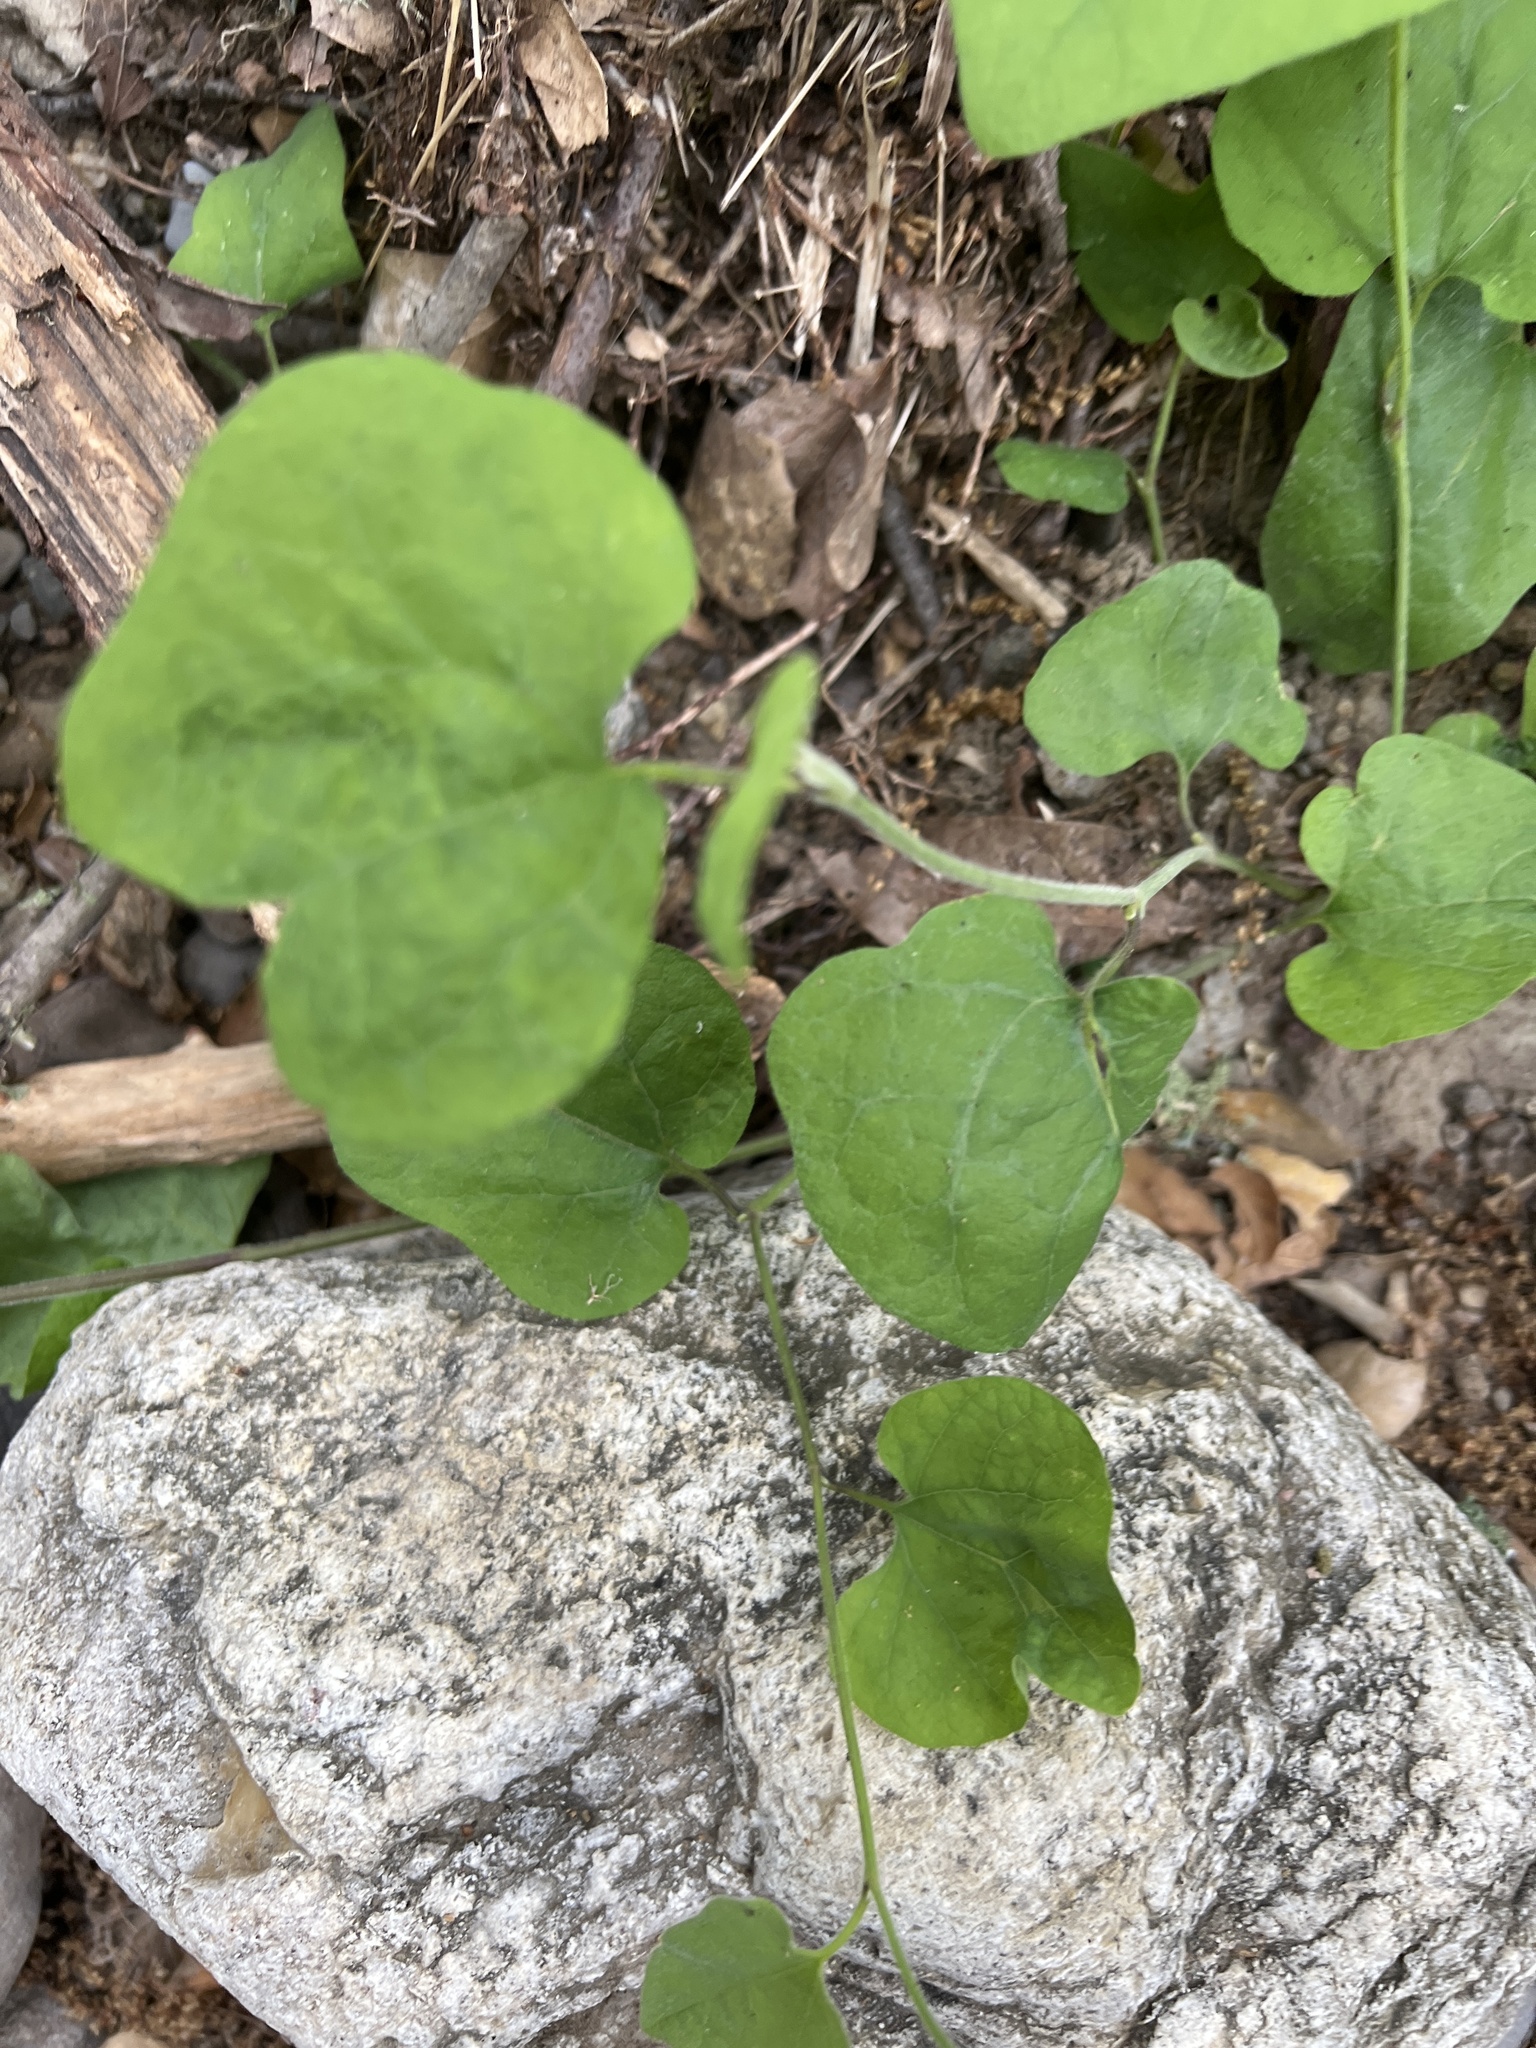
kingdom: Plantae
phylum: Tracheophyta
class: Magnoliopsida
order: Piperales
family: Aristolochiaceae
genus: Isotrema
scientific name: Isotrema californicum
